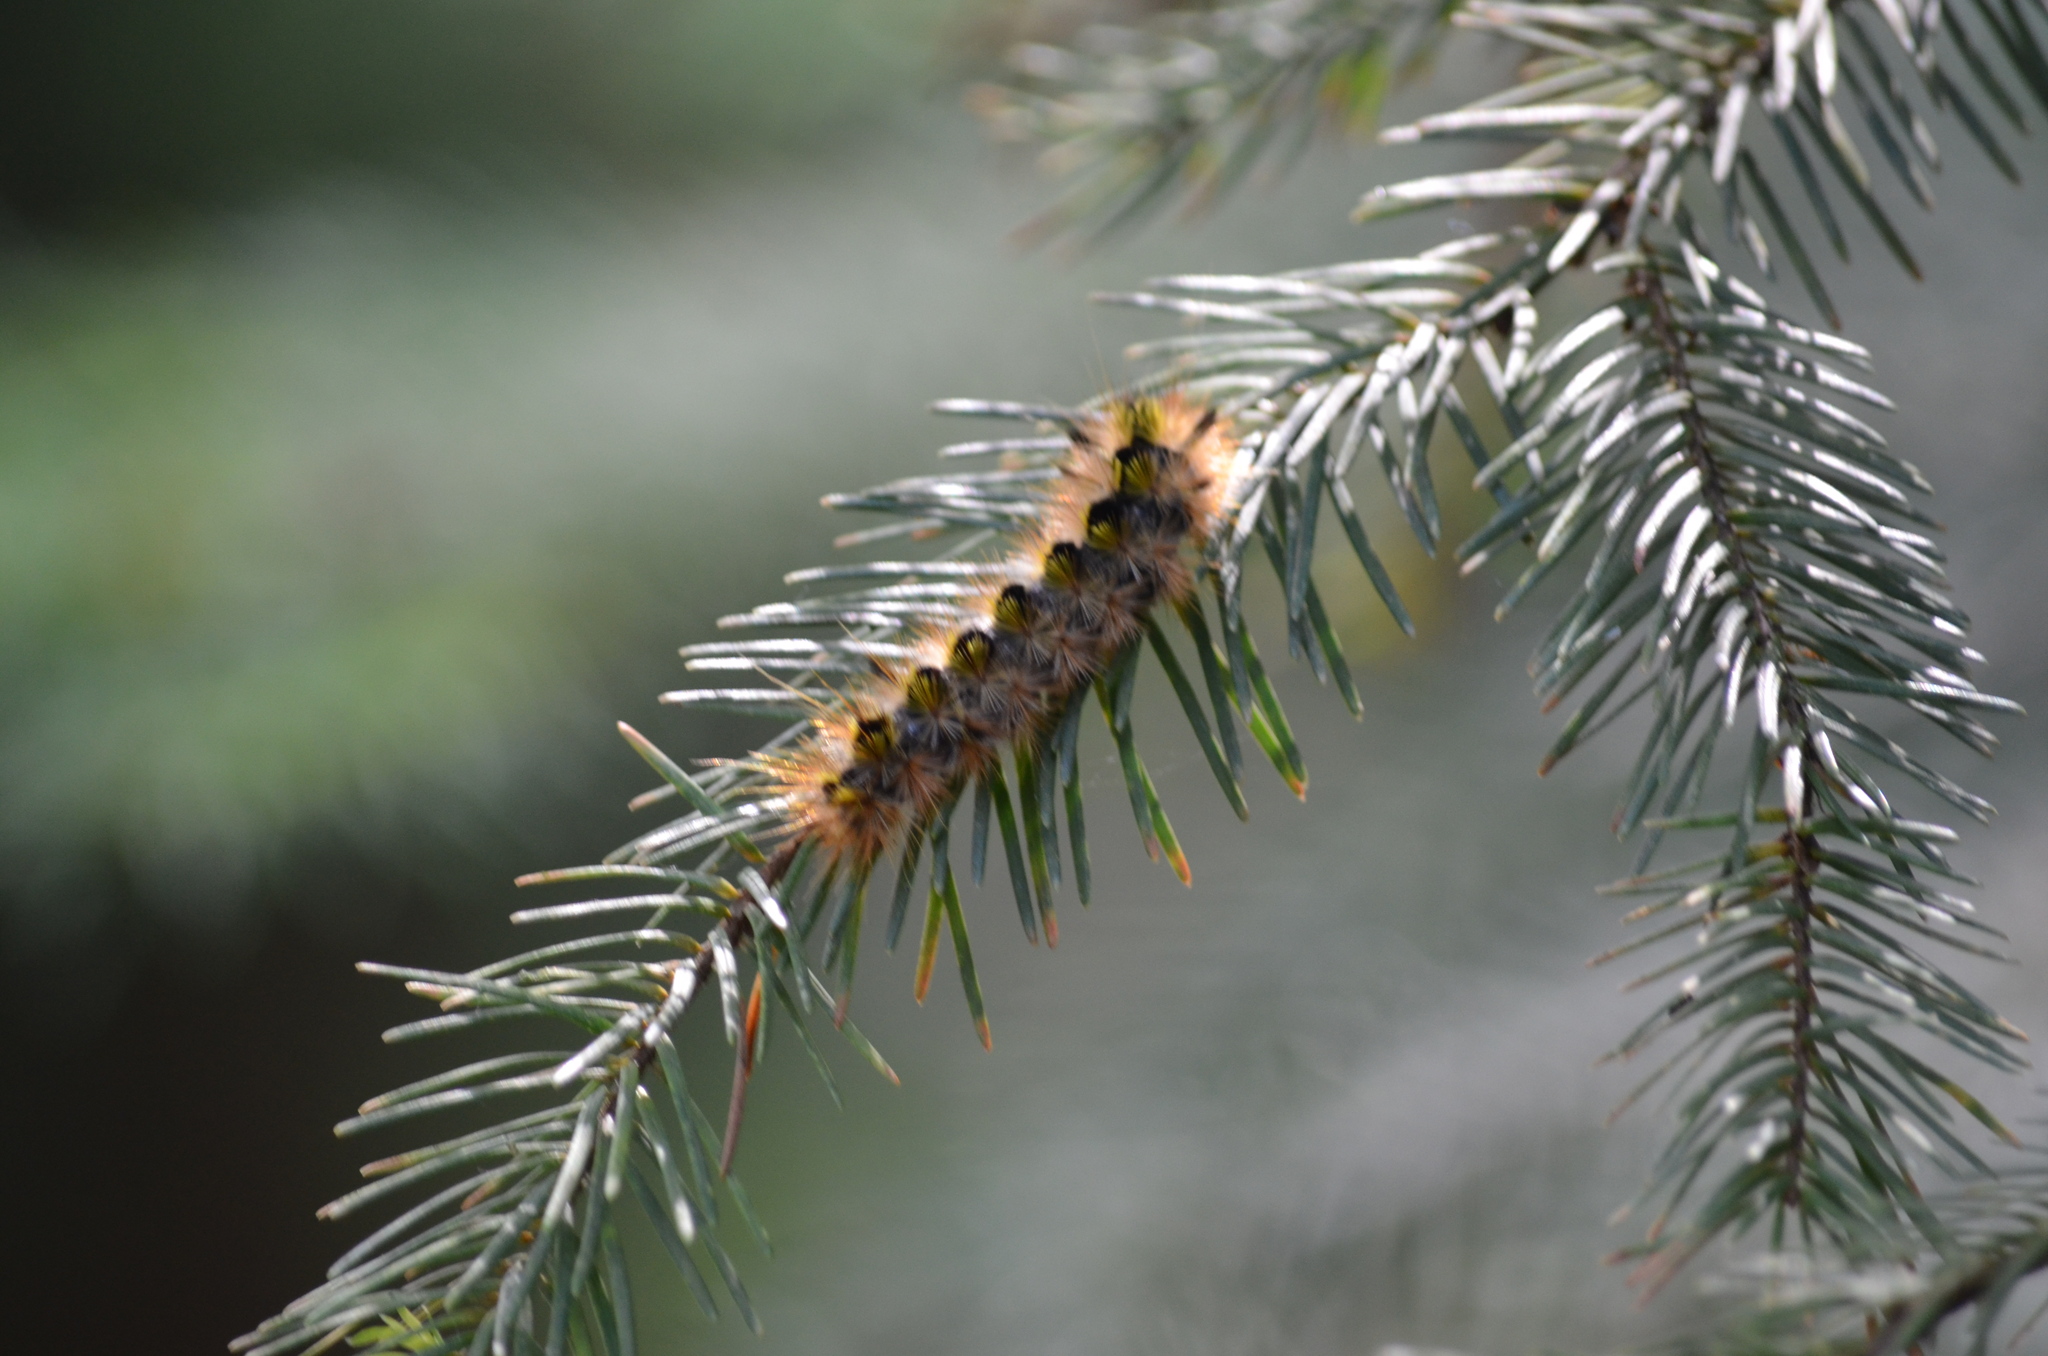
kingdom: Animalia
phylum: Arthropoda
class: Insecta
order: Lepidoptera
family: Erebidae
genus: Lophocampa
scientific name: Lophocampa argentata
